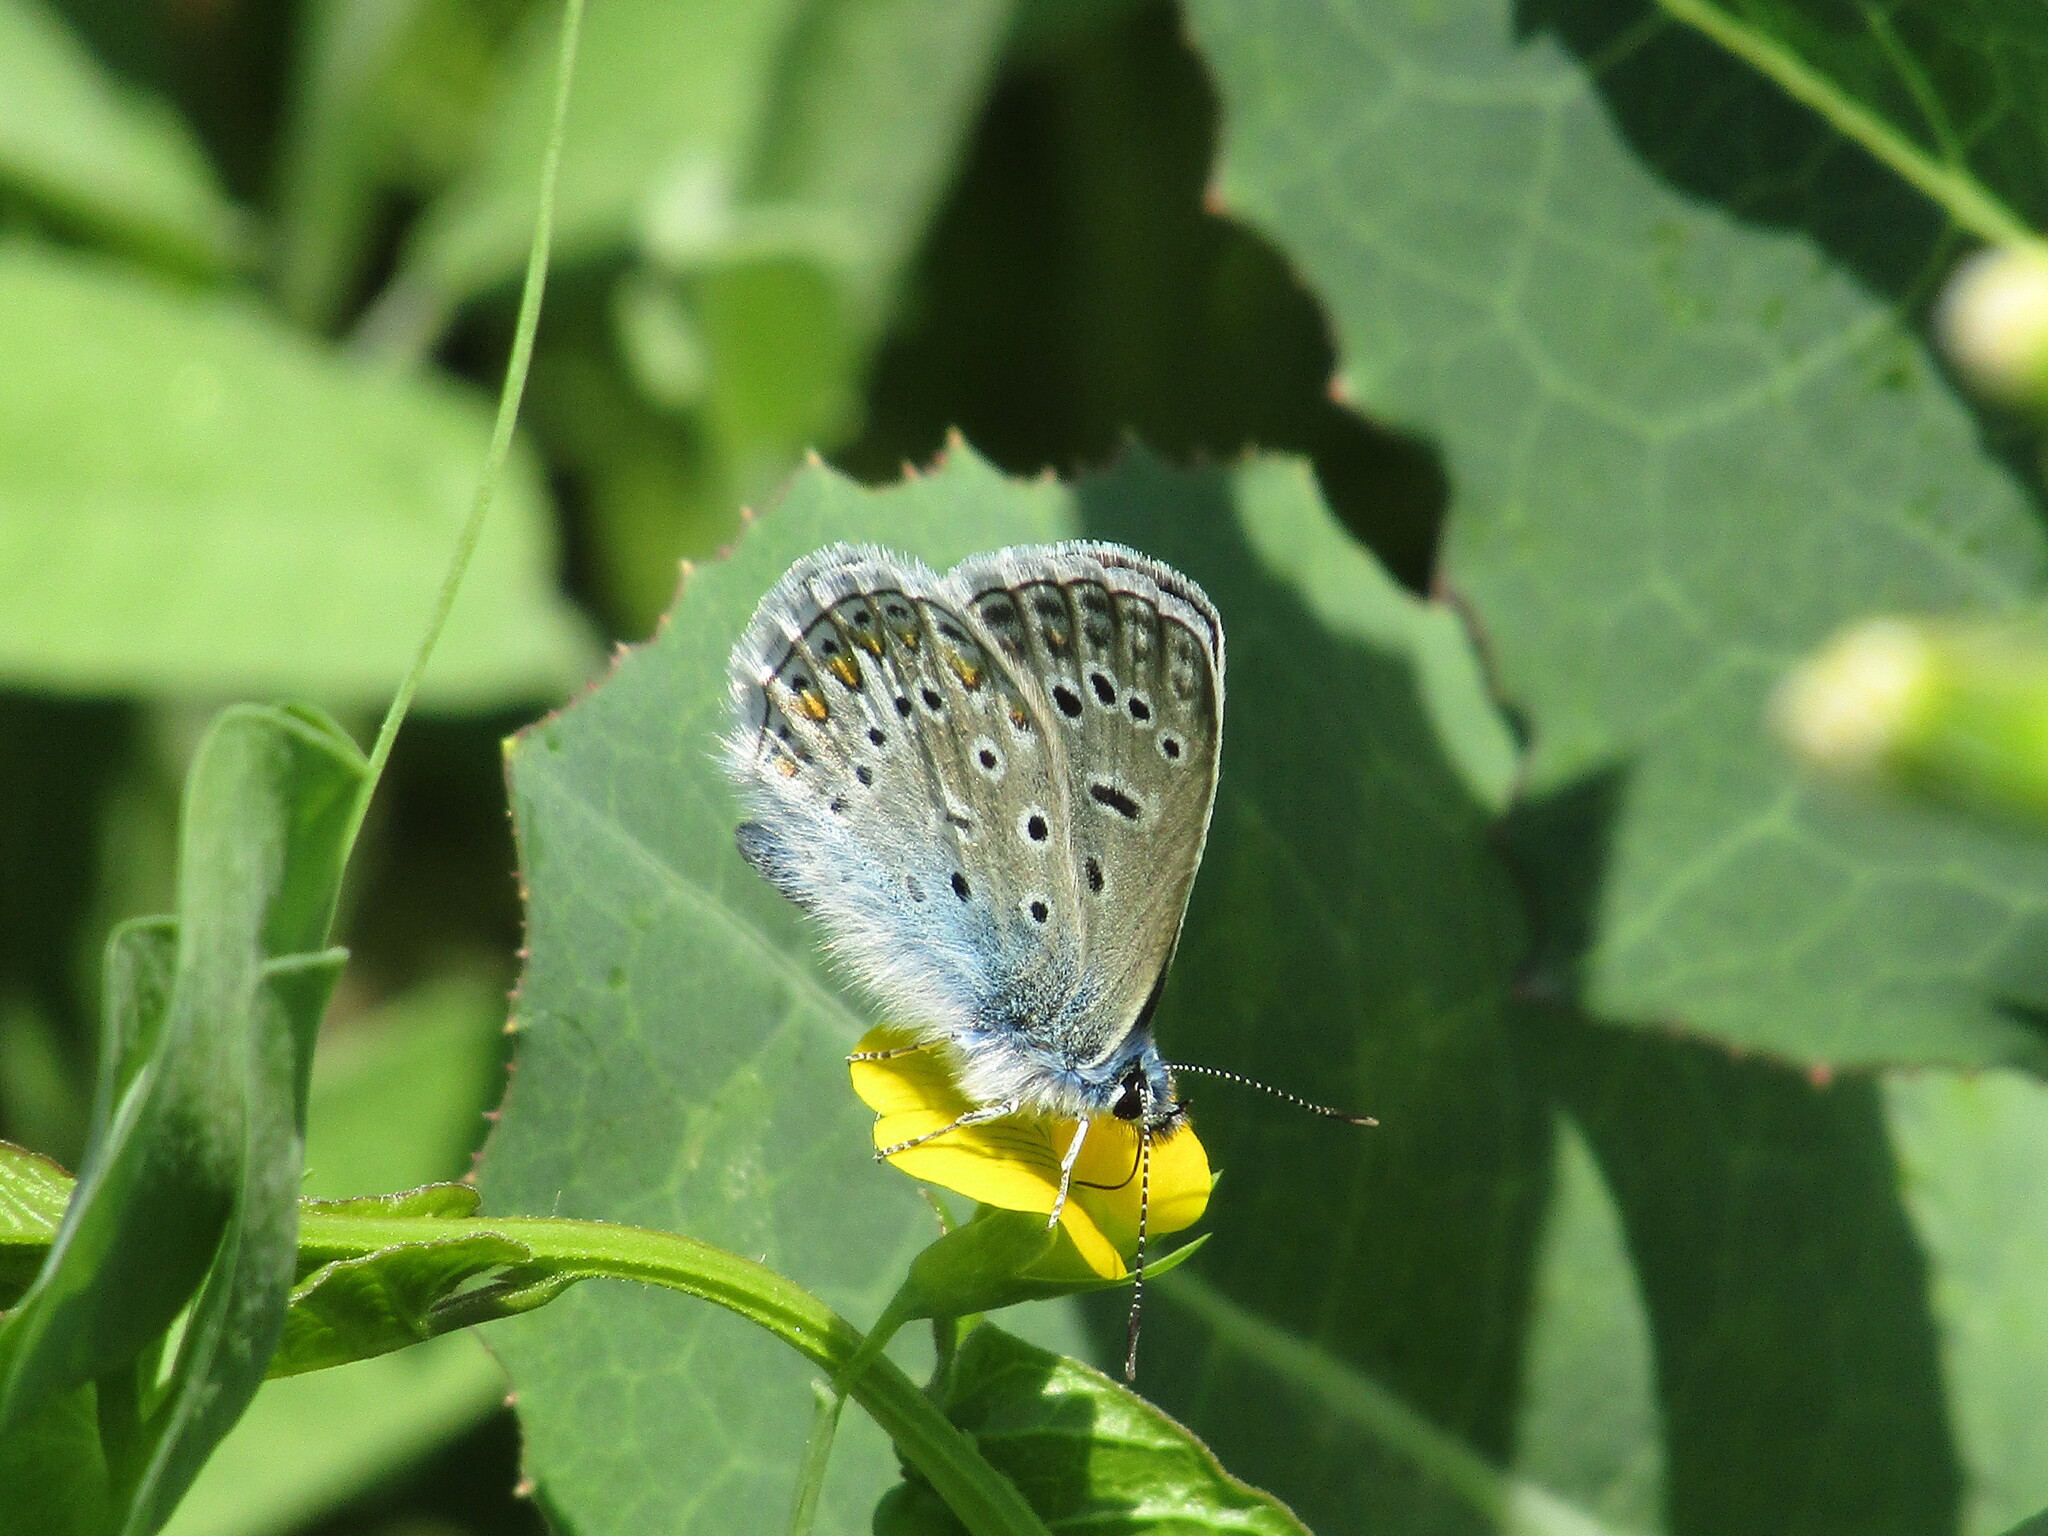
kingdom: Animalia
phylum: Arthropoda
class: Insecta
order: Lepidoptera
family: Lycaenidae
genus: Polyommatus
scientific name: Polyommatus icarus
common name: Common blue
